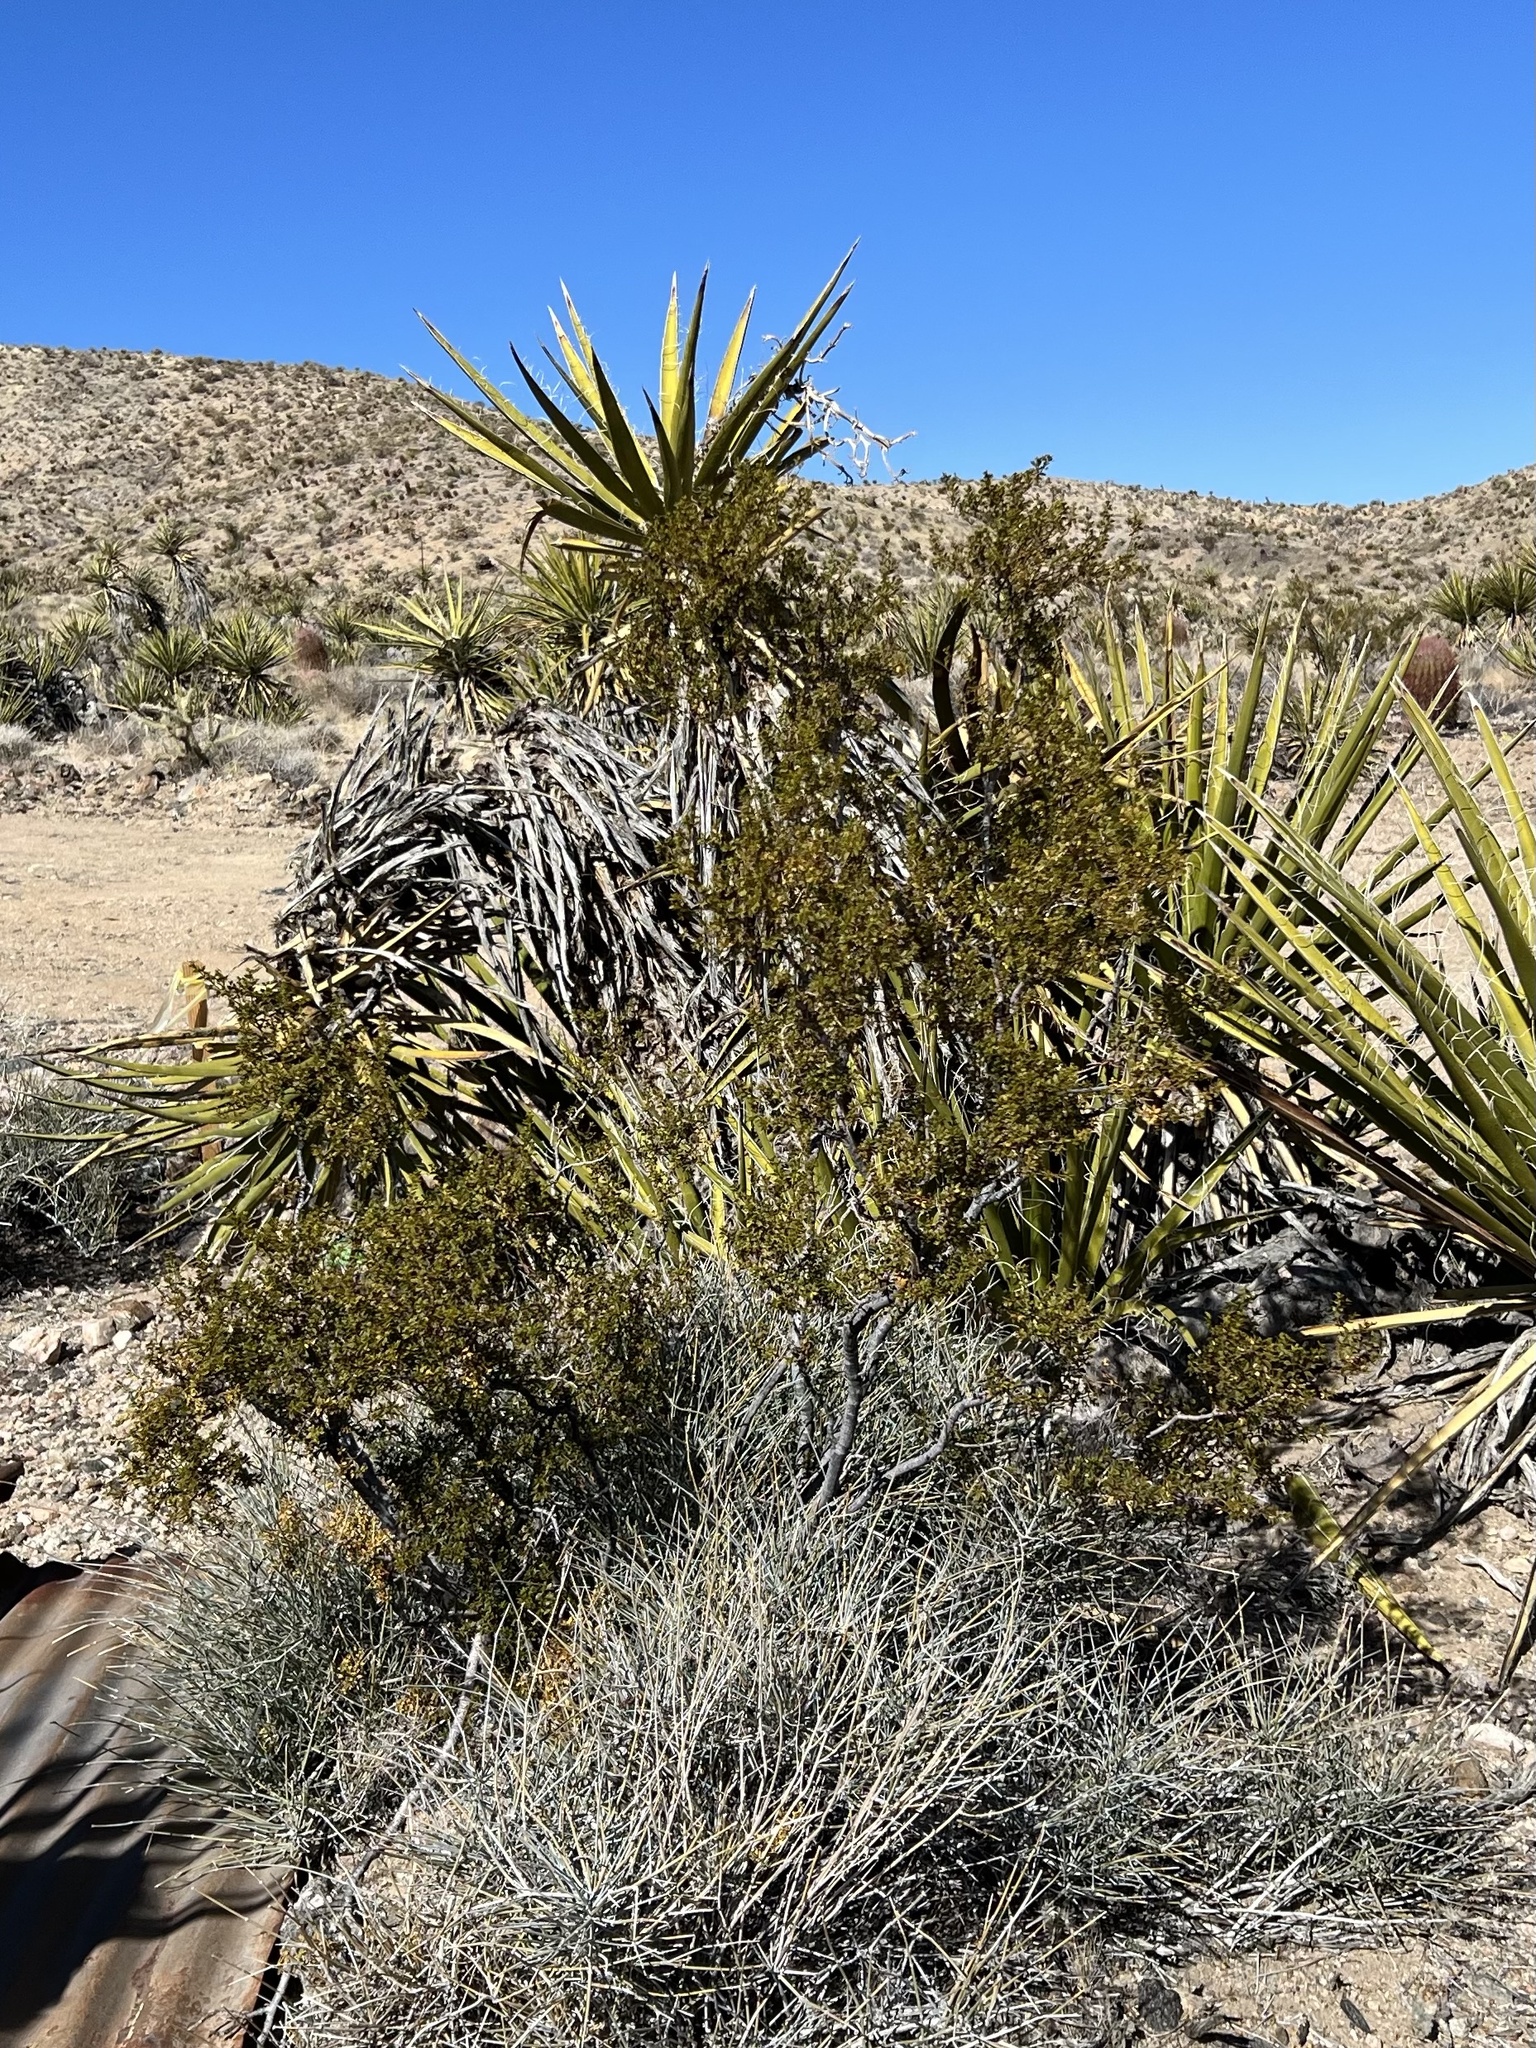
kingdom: Plantae
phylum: Tracheophyta
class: Magnoliopsida
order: Zygophyllales
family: Zygophyllaceae
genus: Larrea
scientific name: Larrea tridentata
